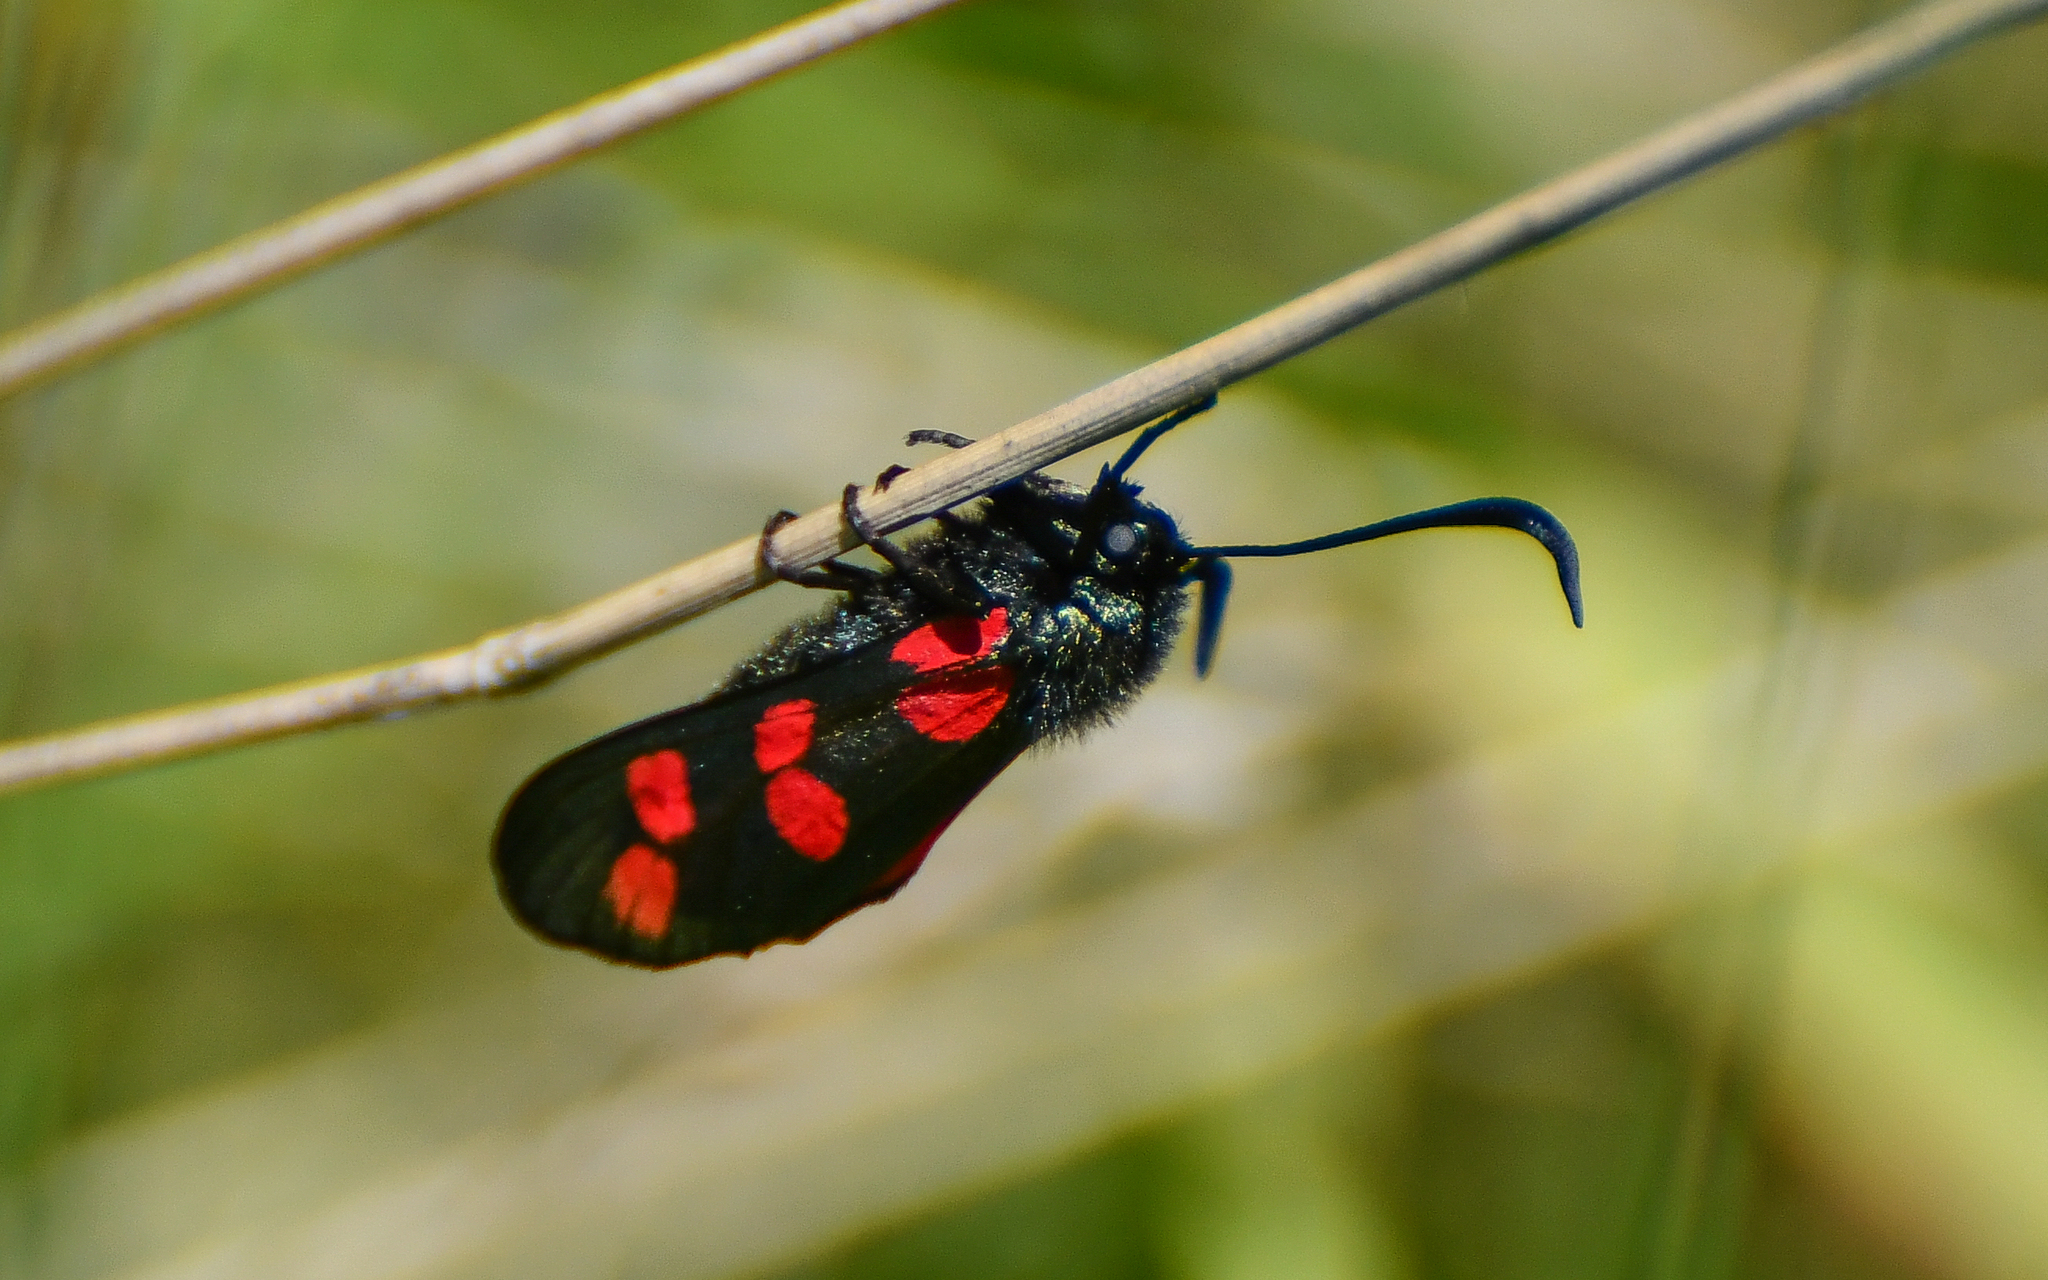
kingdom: Animalia
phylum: Arthropoda
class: Insecta
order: Lepidoptera
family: Zygaenidae
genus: Zygaena
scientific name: Zygaena filipendulae
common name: Six-spot burnet
